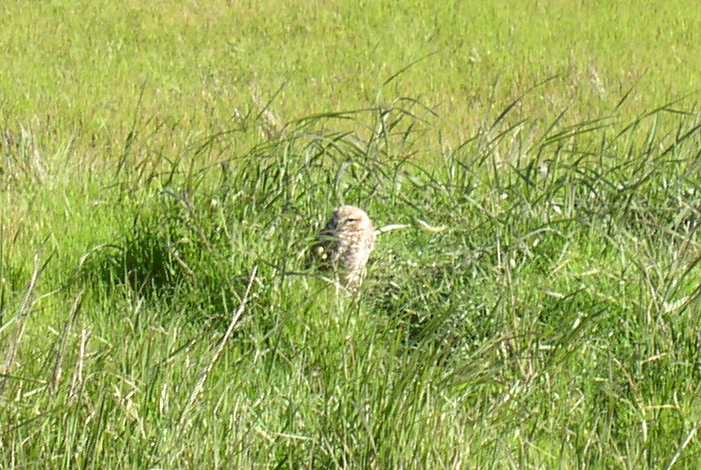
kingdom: Animalia
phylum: Chordata
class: Aves
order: Strigiformes
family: Strigidae
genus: Athene
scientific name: Athene cunicularia
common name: Burrowing owl
